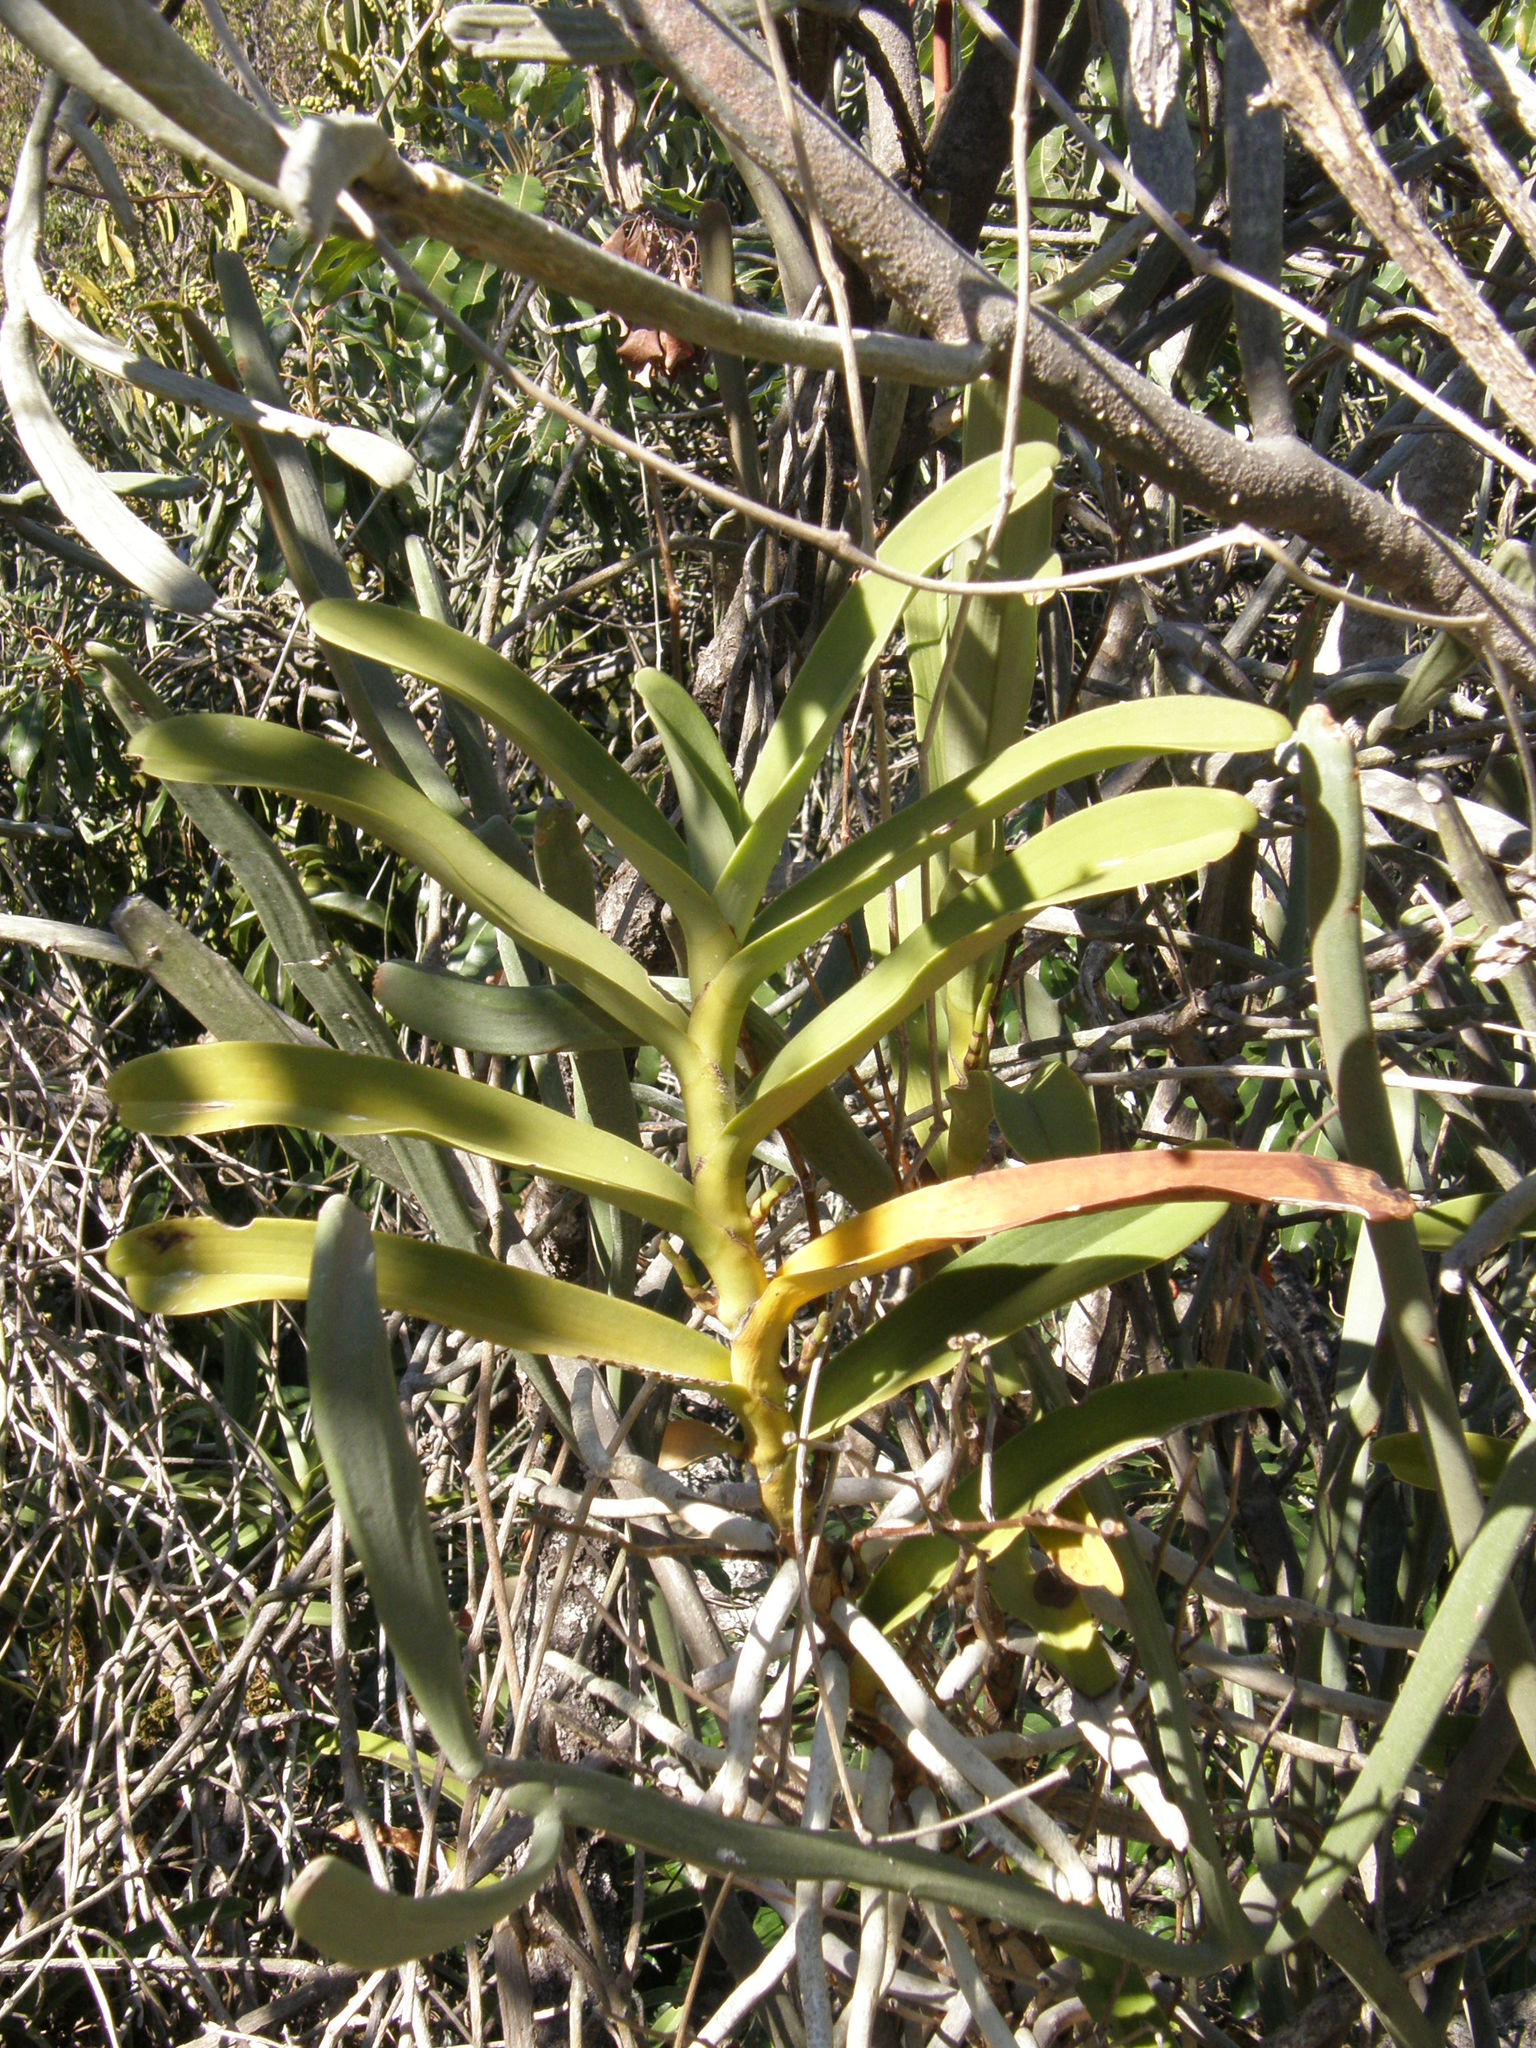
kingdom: Plantae
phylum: Tracheophyta
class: Liliopsida
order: Asparagales
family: Orchidaceae
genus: Sobennikoffia
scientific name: Sobennikoffia humbertiana
